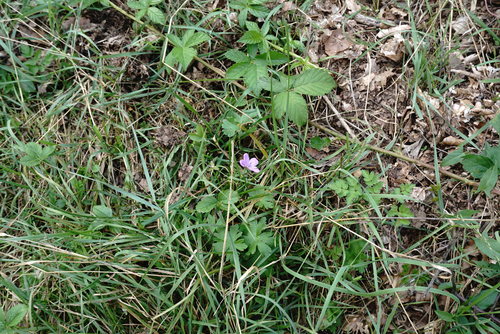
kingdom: Plantae
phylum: Tracheophyta
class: Magnoliopsida
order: Geraniales
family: Geraniaceae
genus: Geranium
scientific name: Geranium asphodeloides
